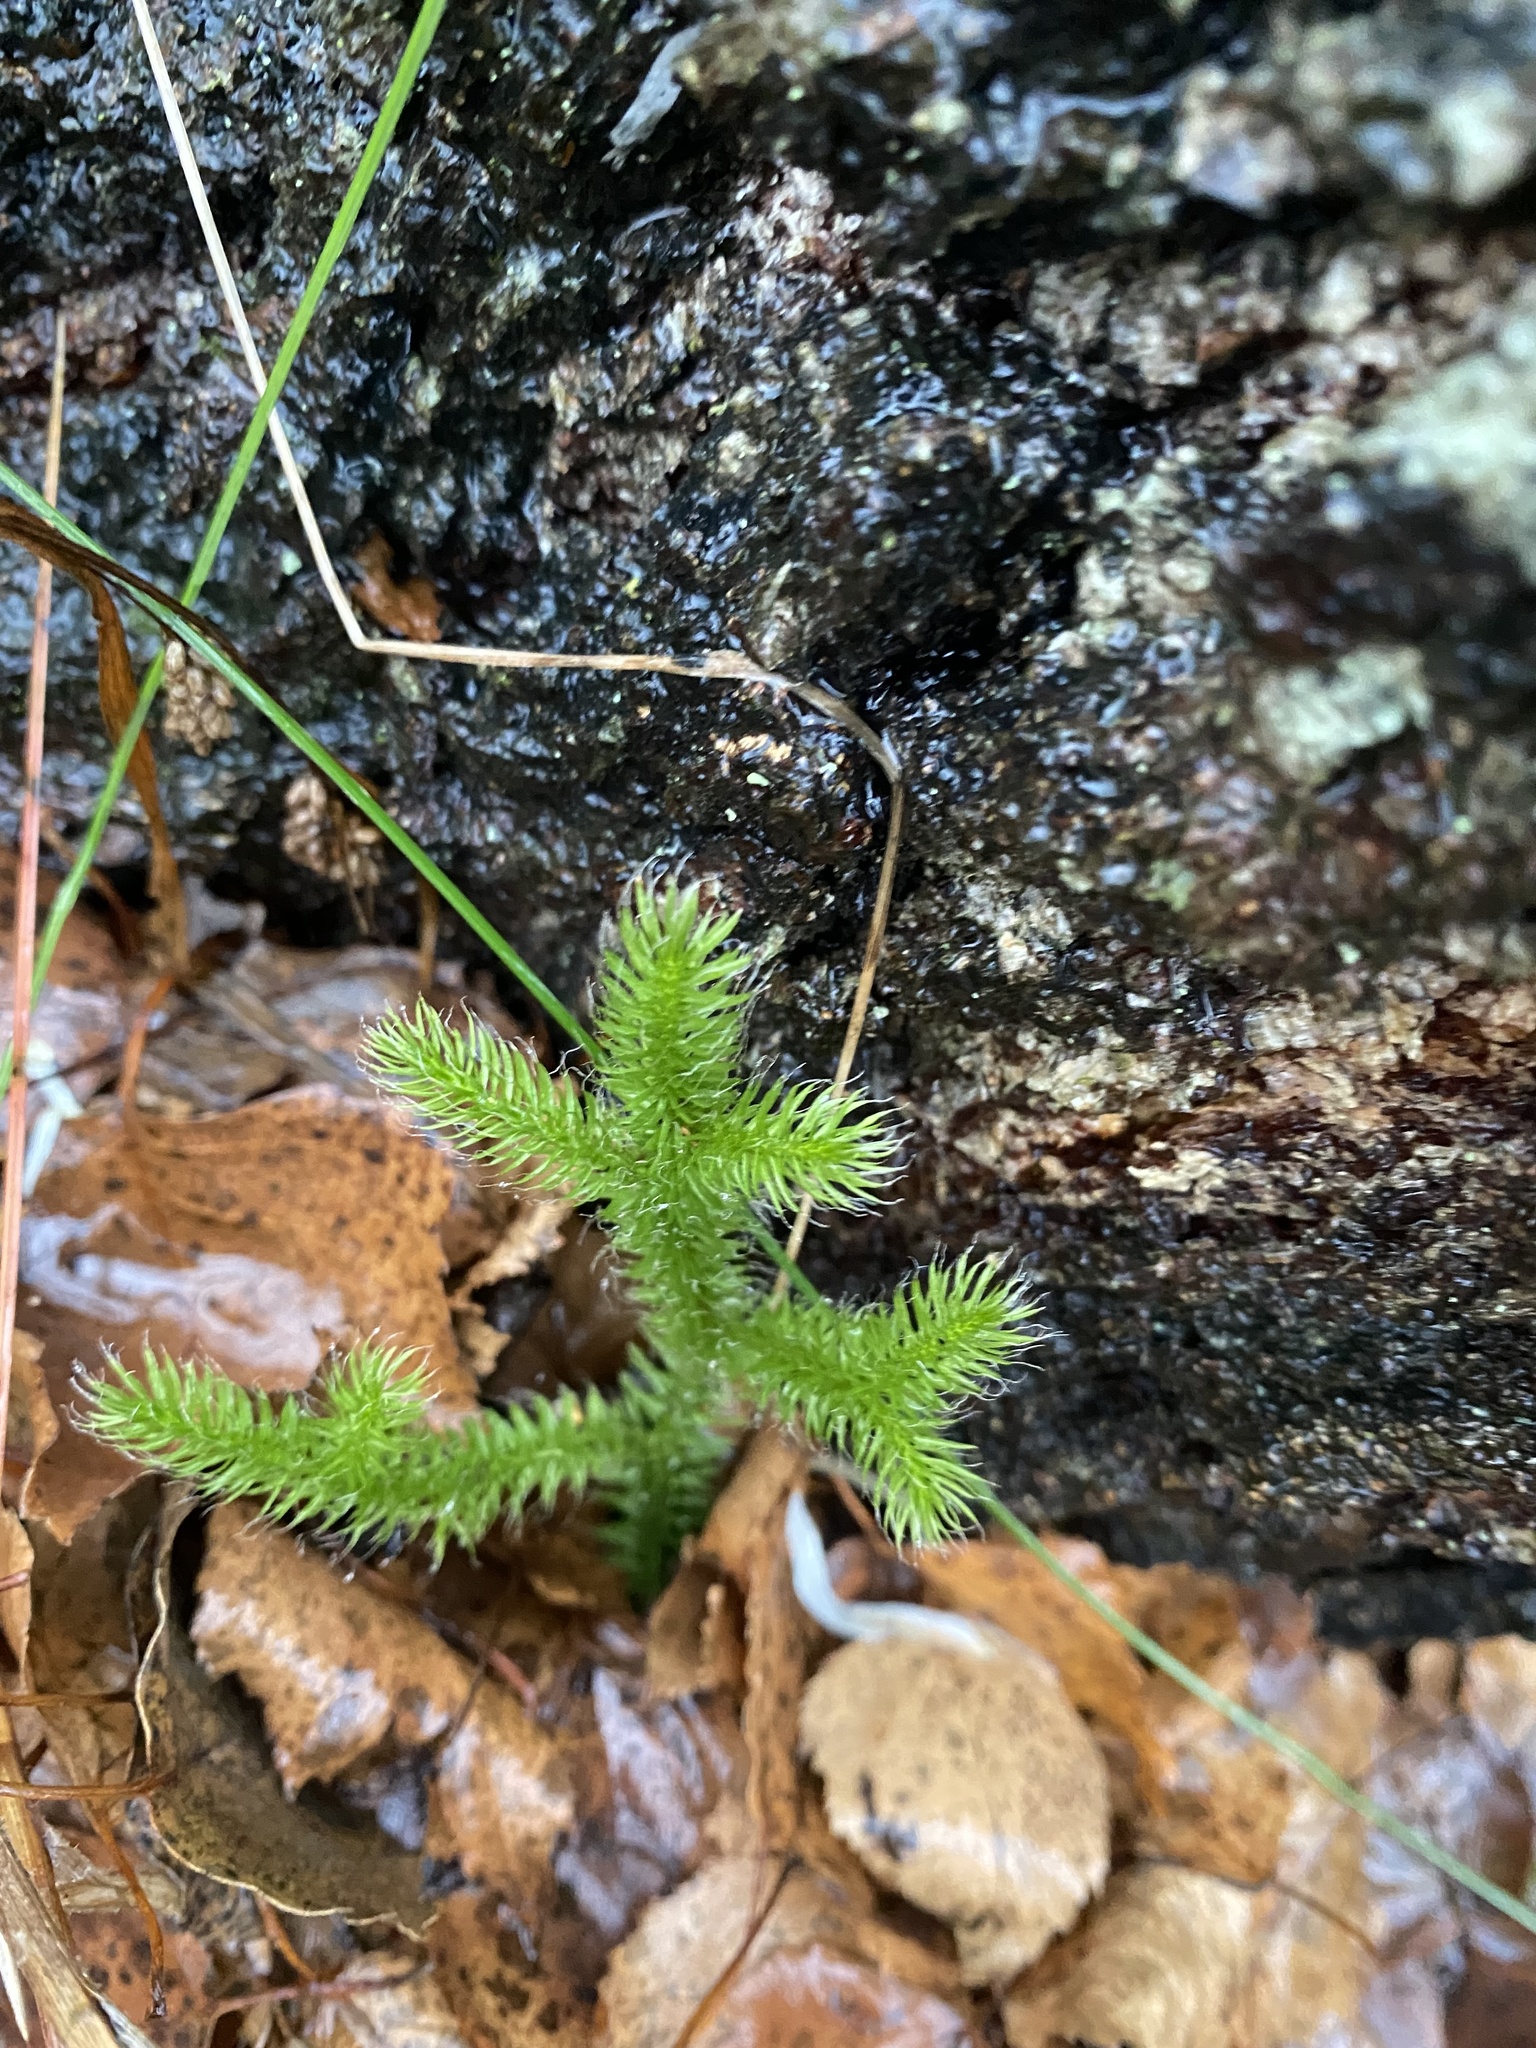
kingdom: Plantae
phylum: Tracheophyta
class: Lycopodiopsida
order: Lycopodiales
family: Lycopodiaceae
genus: Lycopodium
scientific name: Lycopodium clavatum
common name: Stag's-horn clubmoss
